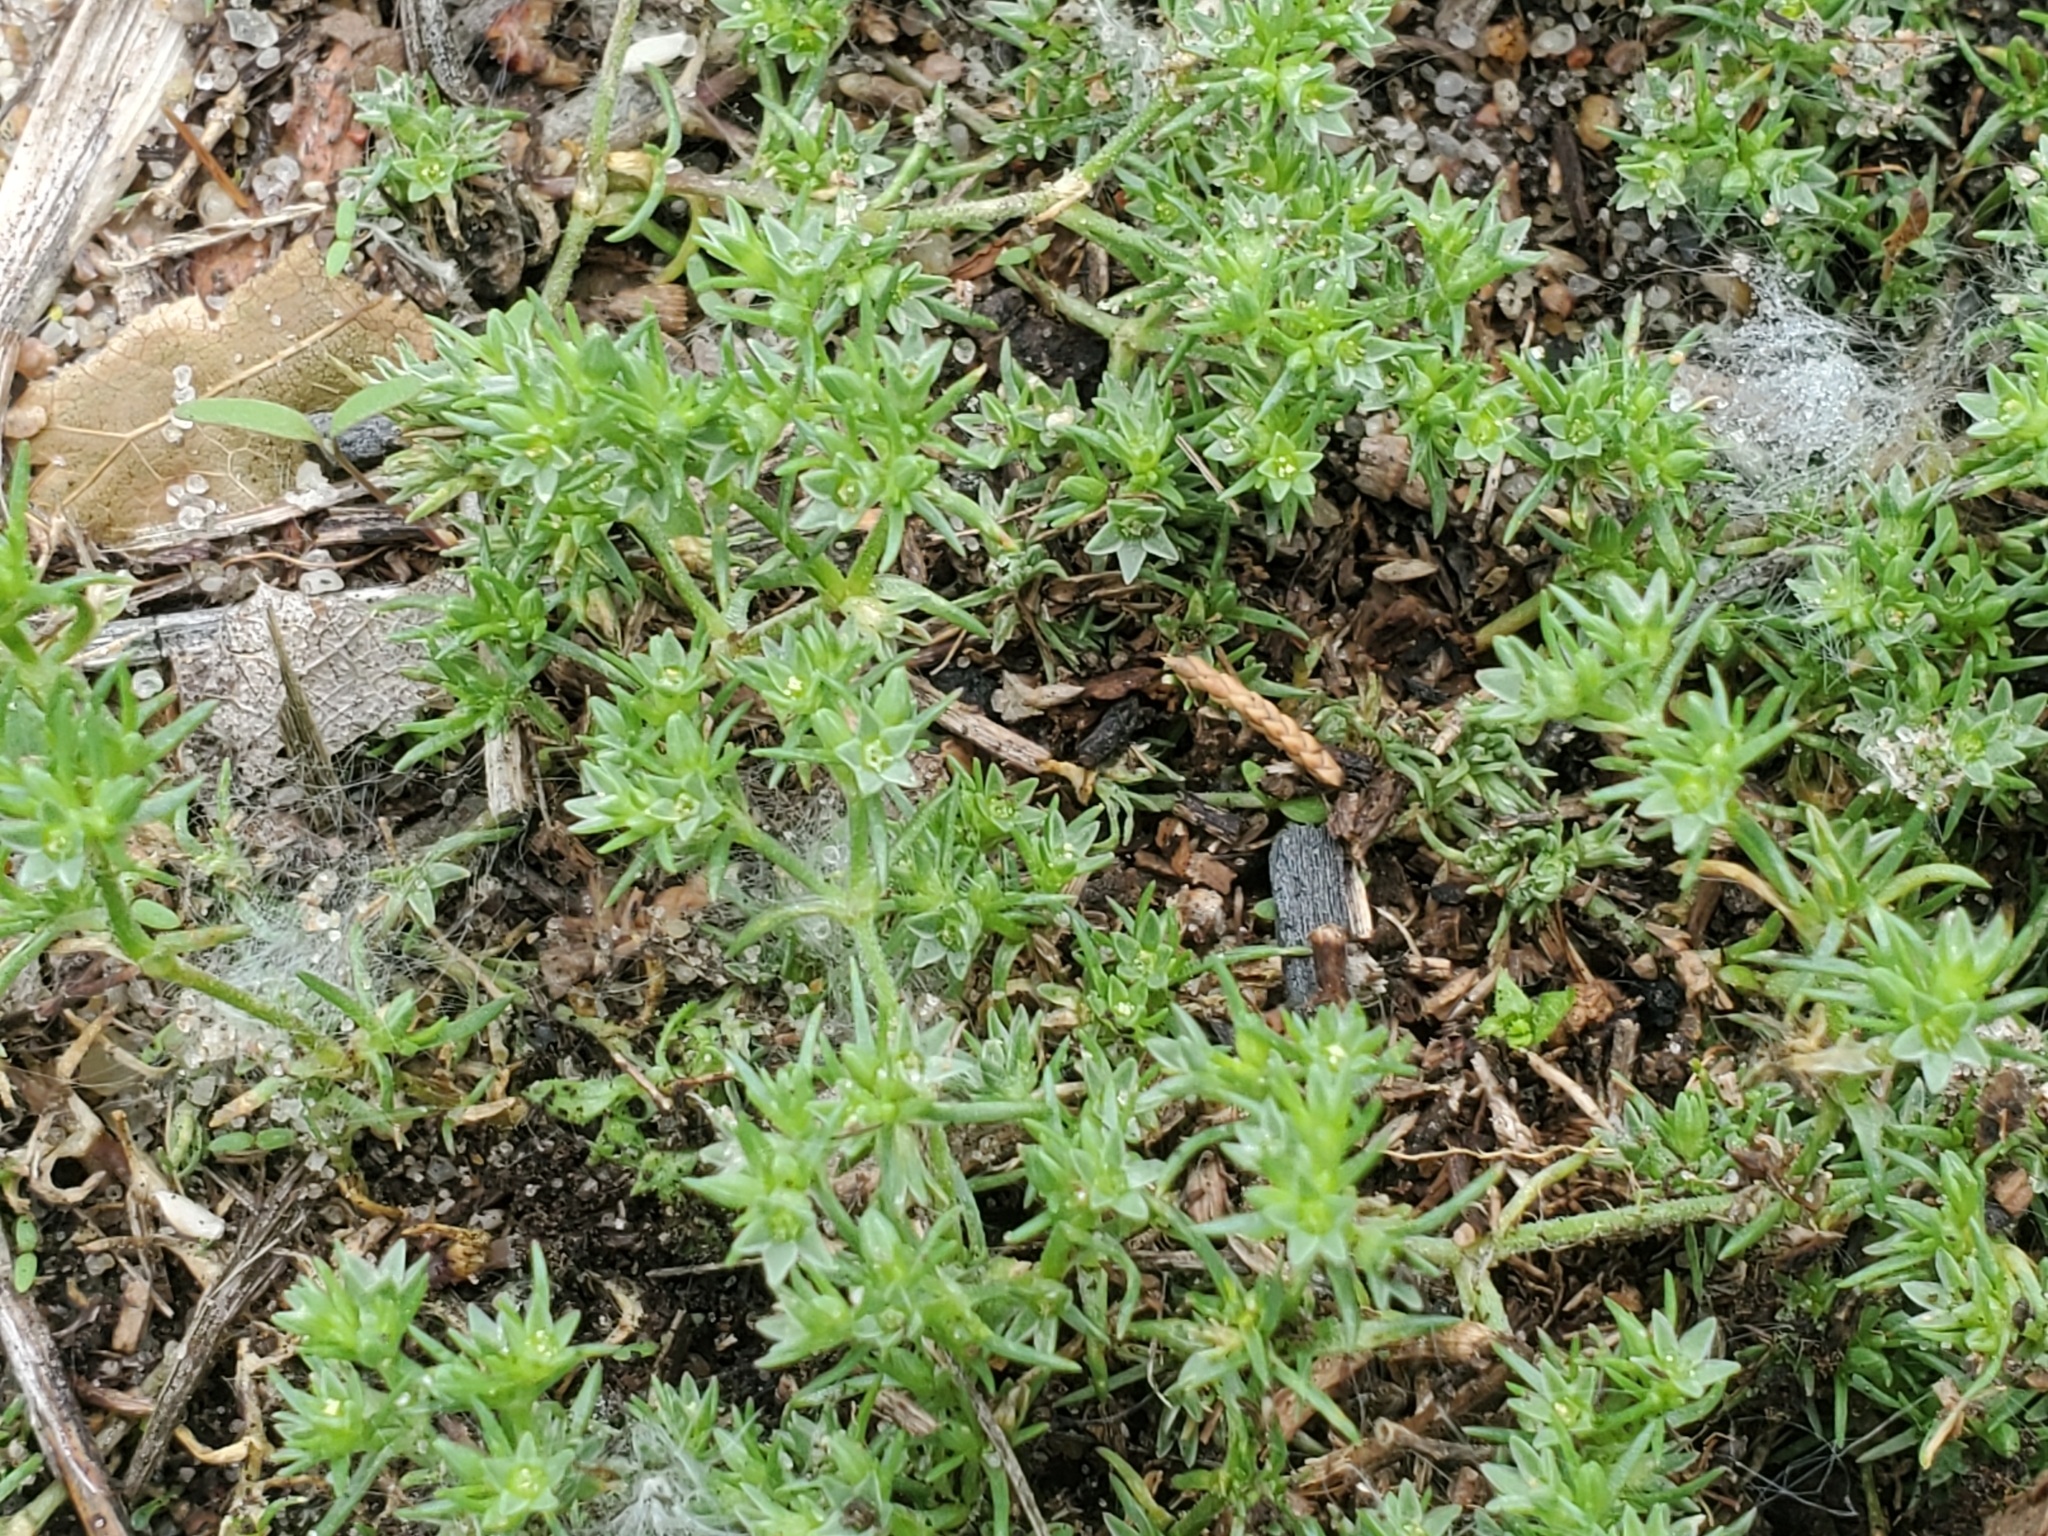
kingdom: Plantae
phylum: Tracheophyta
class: Magnoliopsida
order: Caryophyllales
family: Caryophyllaceae
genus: Scleranthus
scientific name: Scleranthus annuus
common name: Annual knawel
